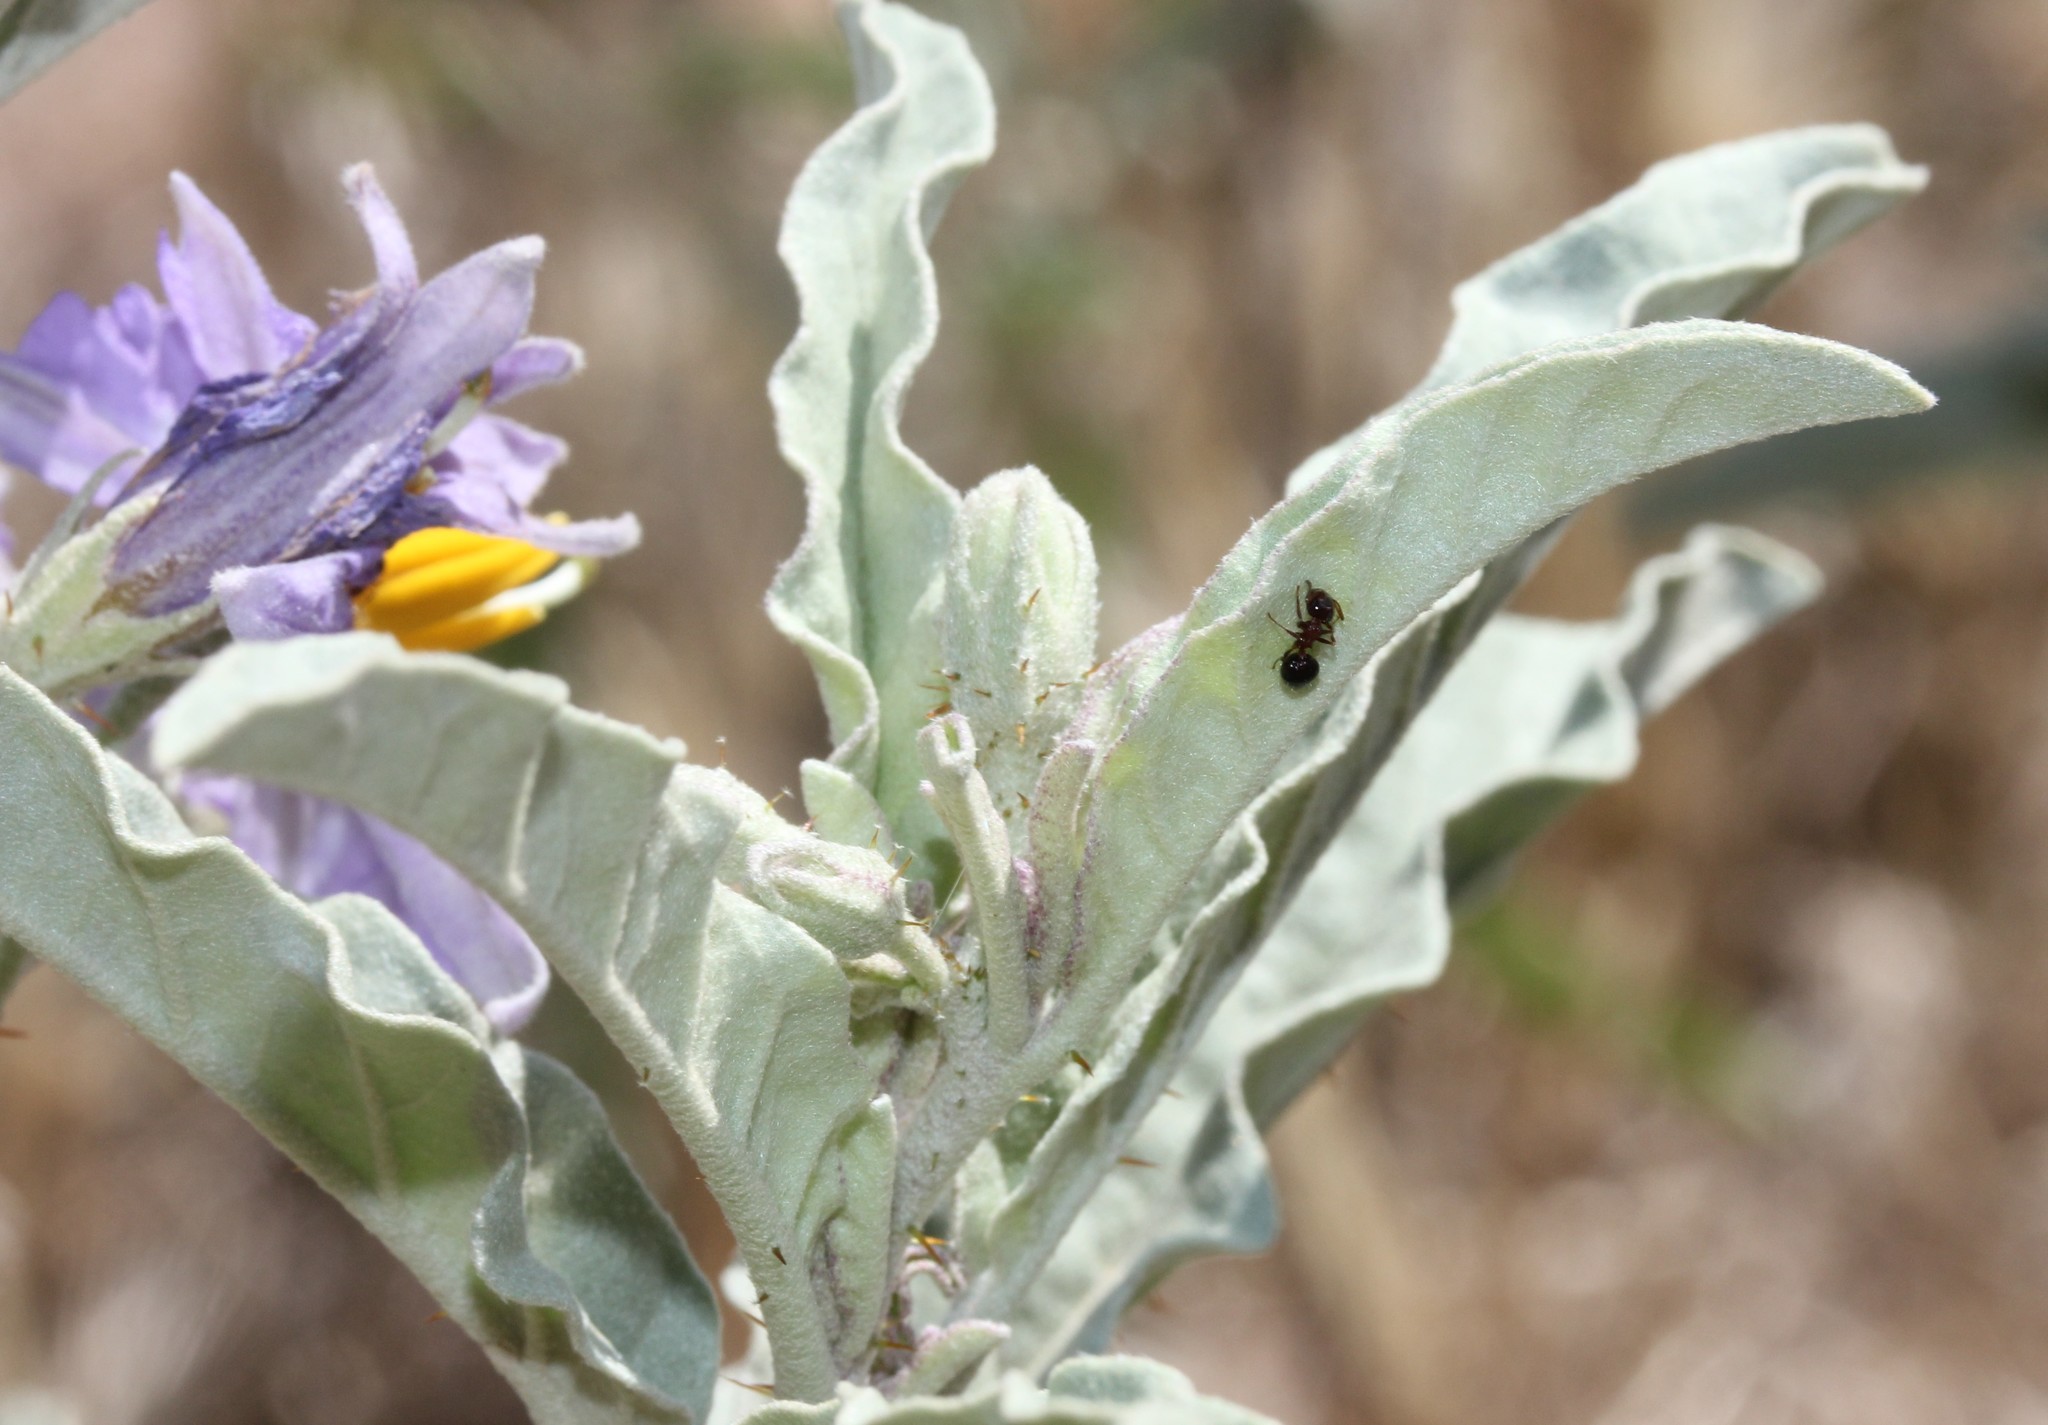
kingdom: Plantae
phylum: Tracheophyta
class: Magnoliopsida
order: Solanales
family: Solanaceae
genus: Solanum
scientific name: Solanum elaeagnifolium
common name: Silverleaf nightshade
